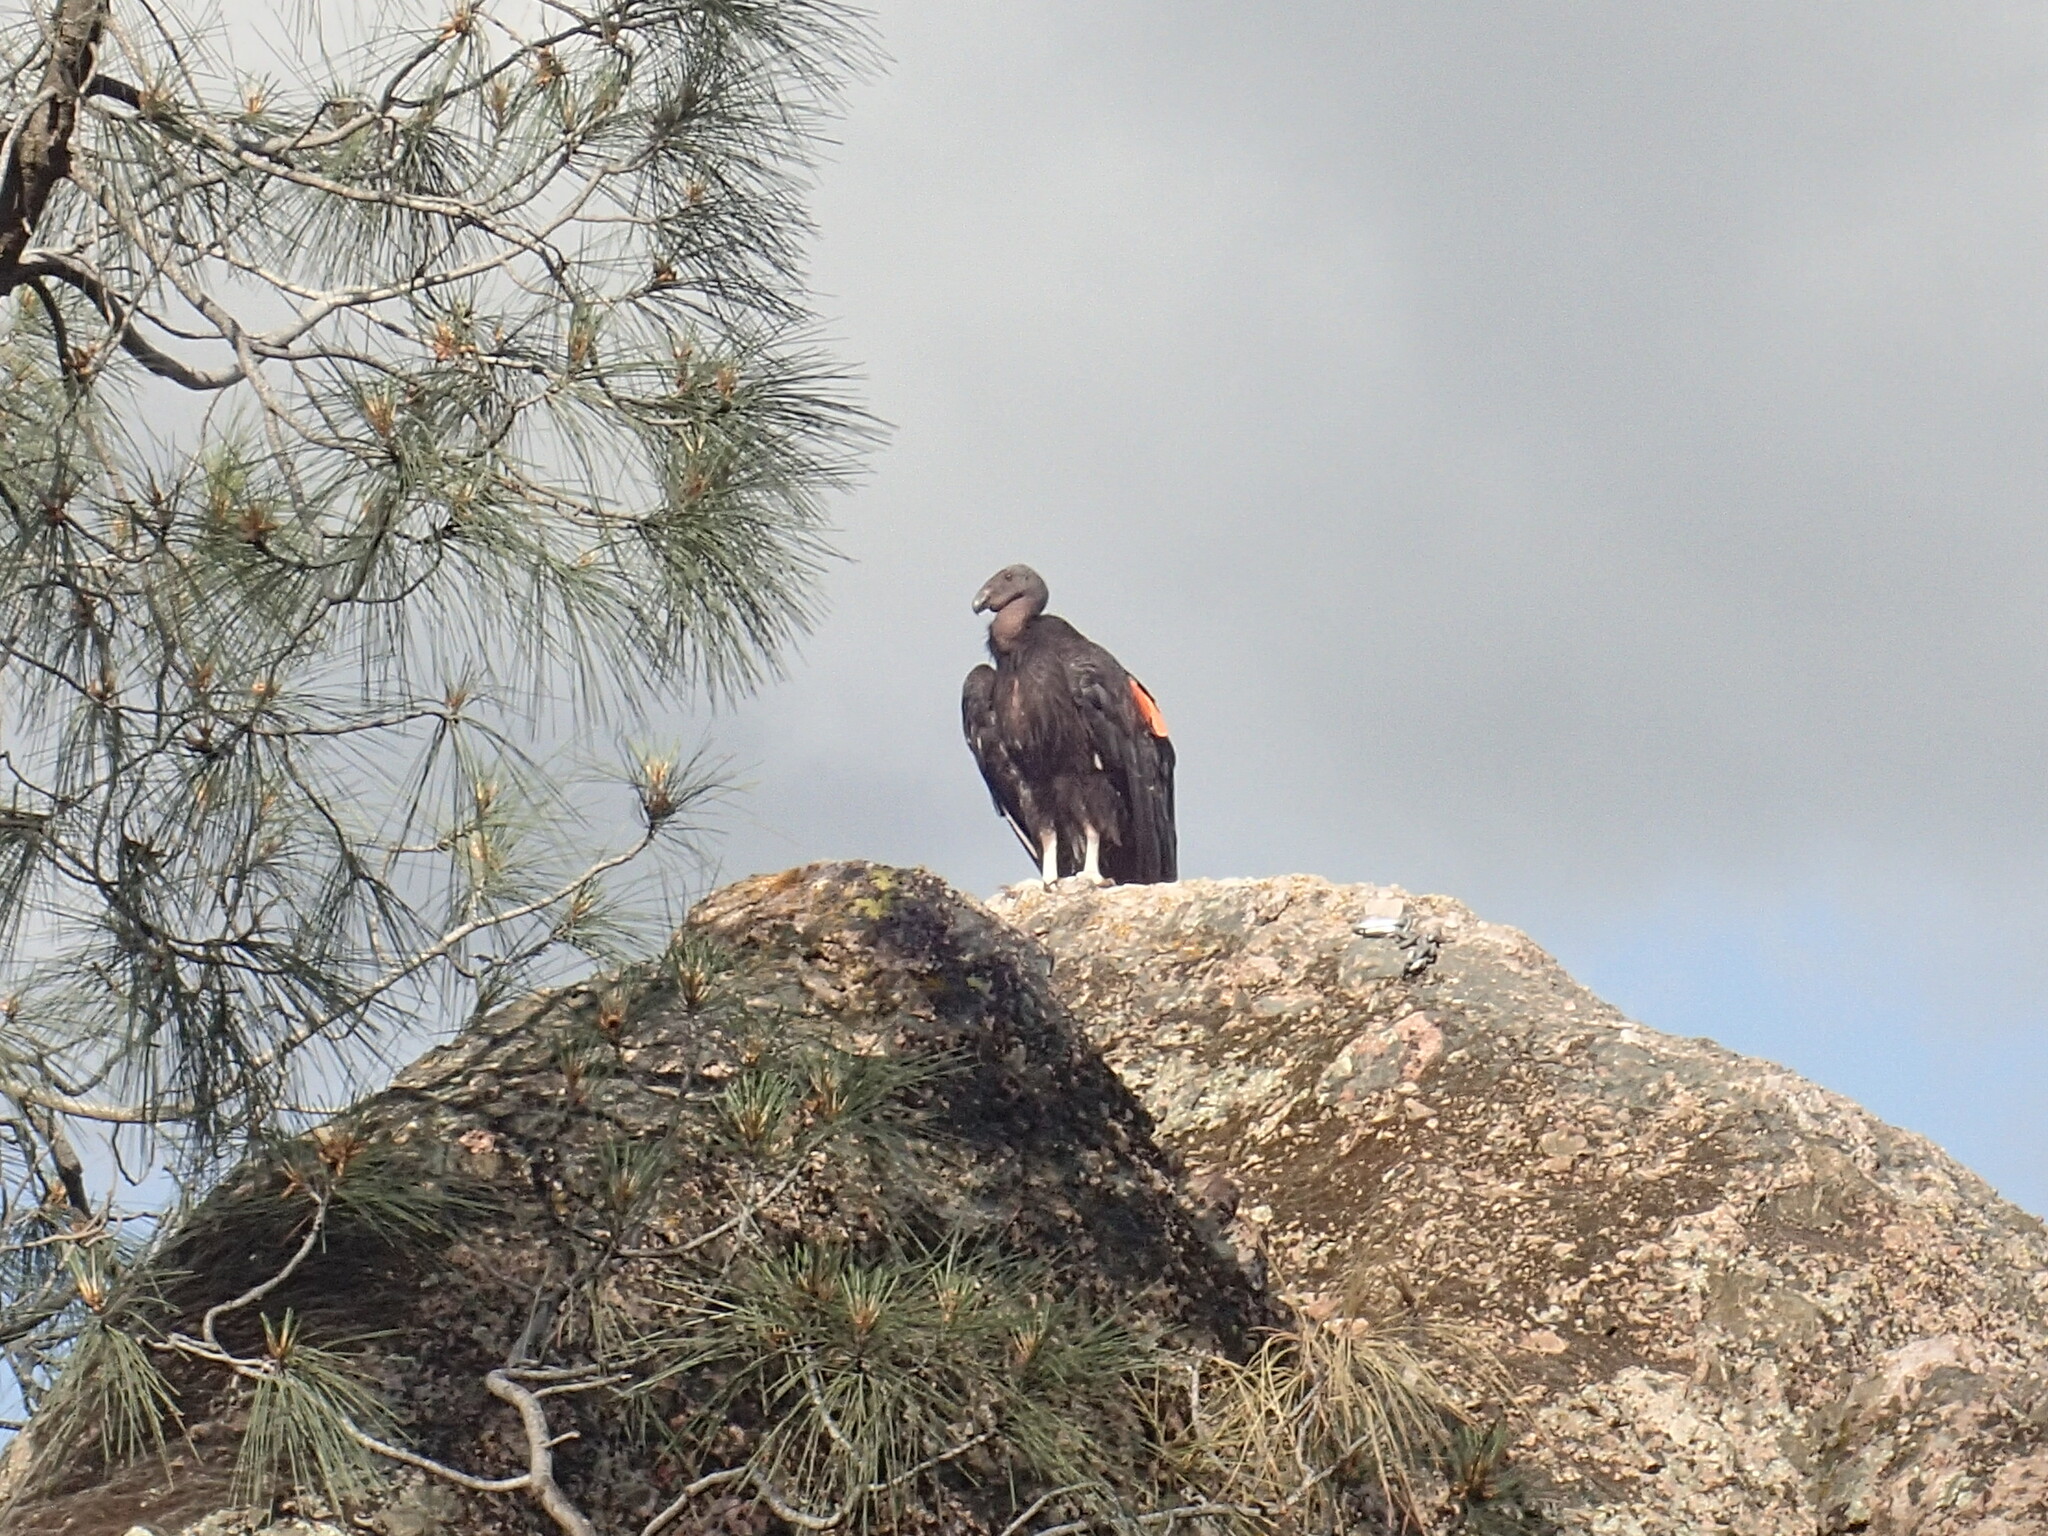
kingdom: Animalia
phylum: Chordata
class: Aves
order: Accipitriformes
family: Cathartidae
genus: Gymnogyps
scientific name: Gymnogyps californianus
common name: California condor
